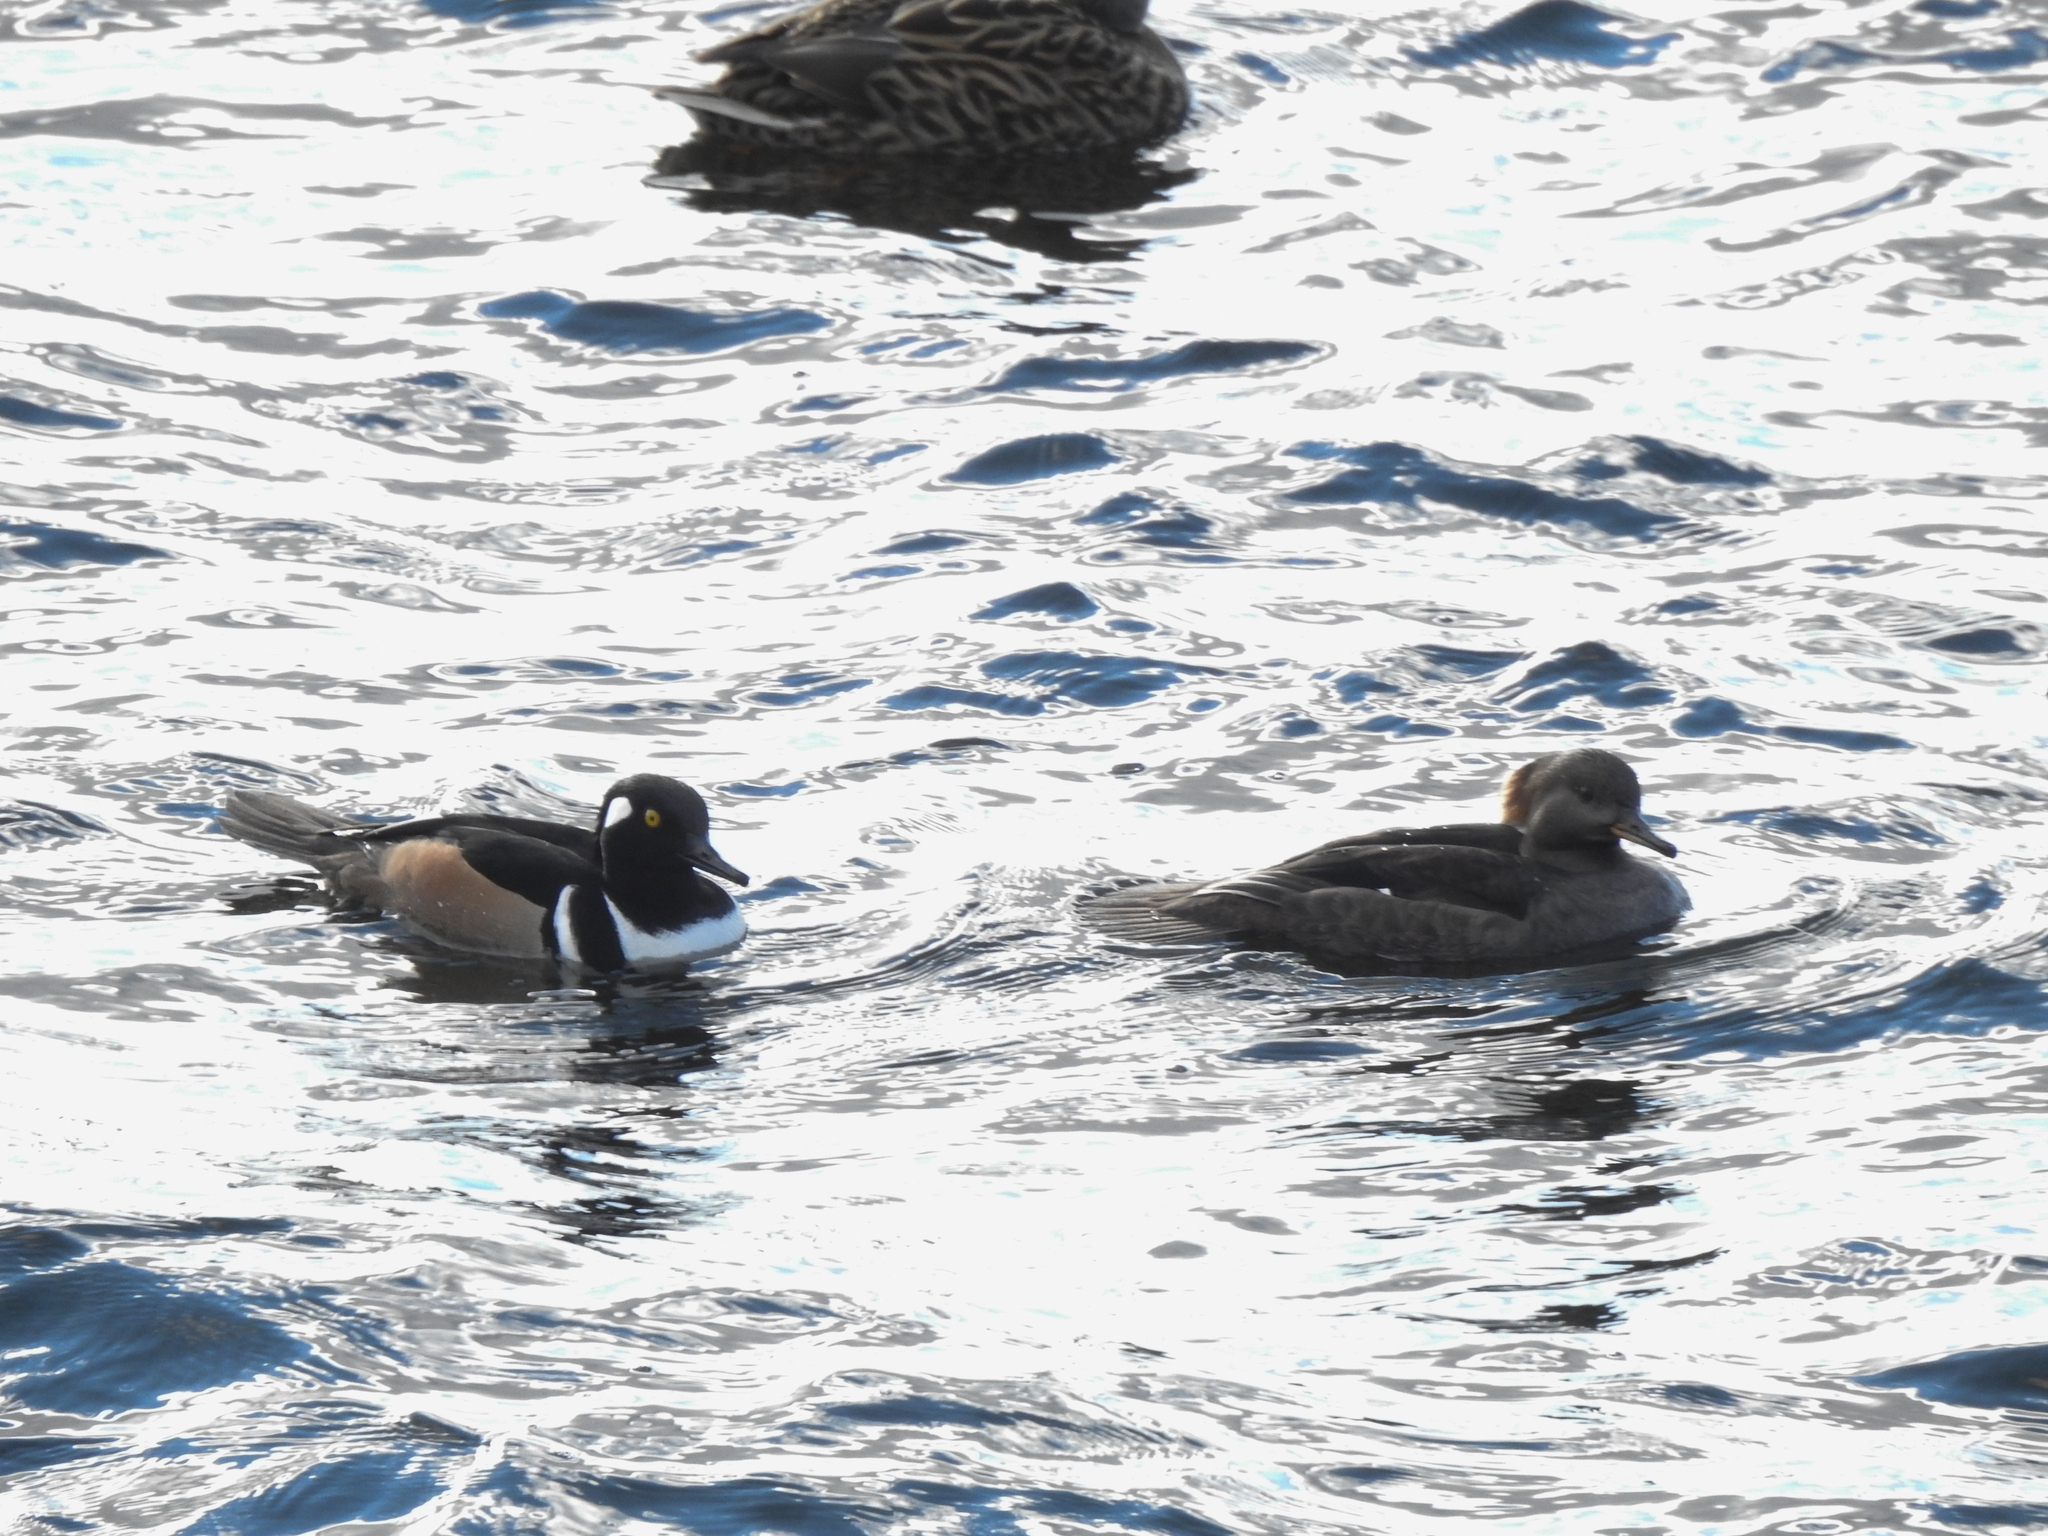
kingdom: Animalia
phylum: Chordata
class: Aves
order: Anseriformes
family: Anatidae
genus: Lophodytes
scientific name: Lophodytes cucullatus
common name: Hooded merganser
